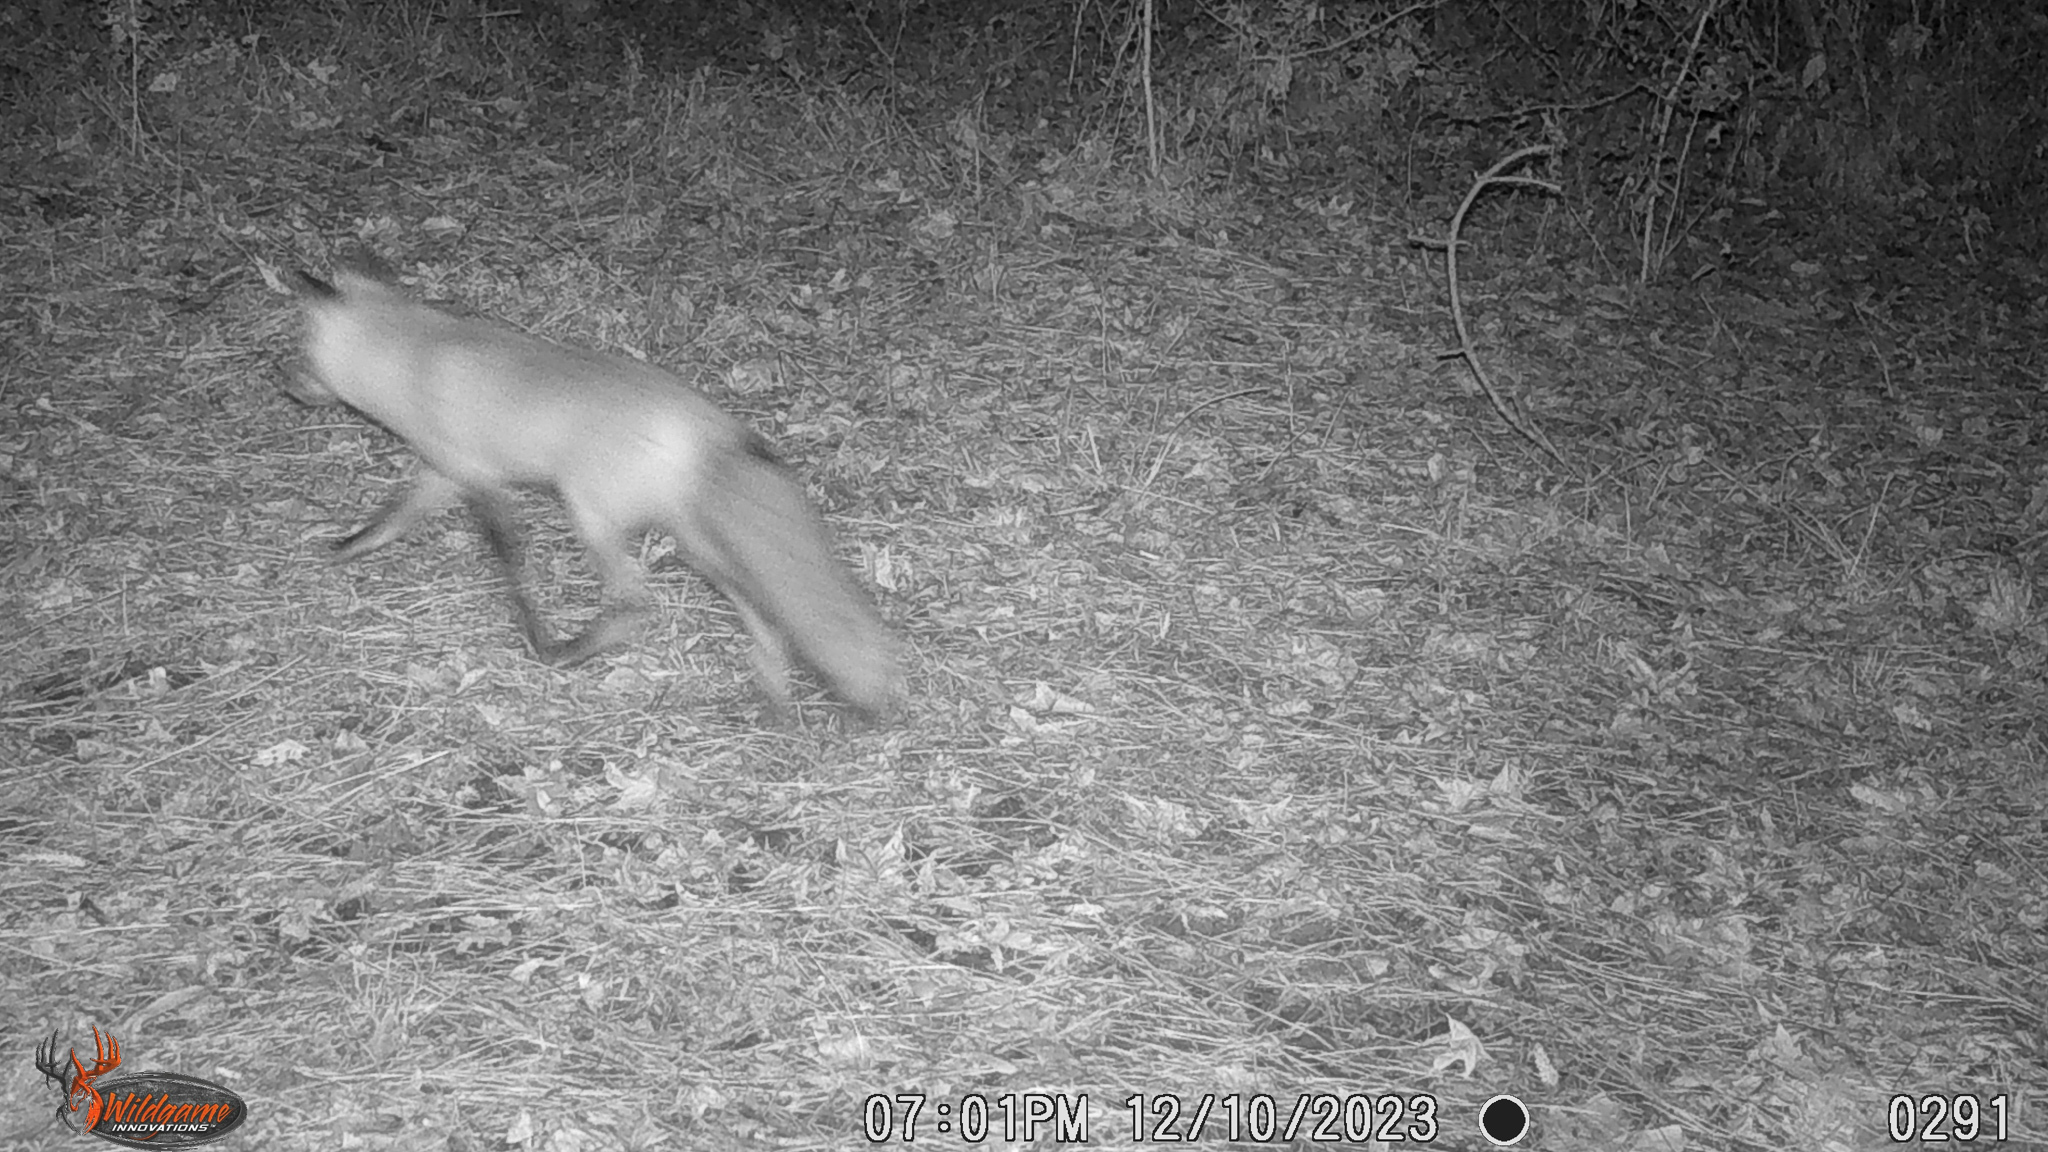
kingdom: Animalia
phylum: Chordata
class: Mammalia
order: Carnivora
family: Canidae
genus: Vulpes
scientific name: Vulpes vulpes
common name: Red fox
